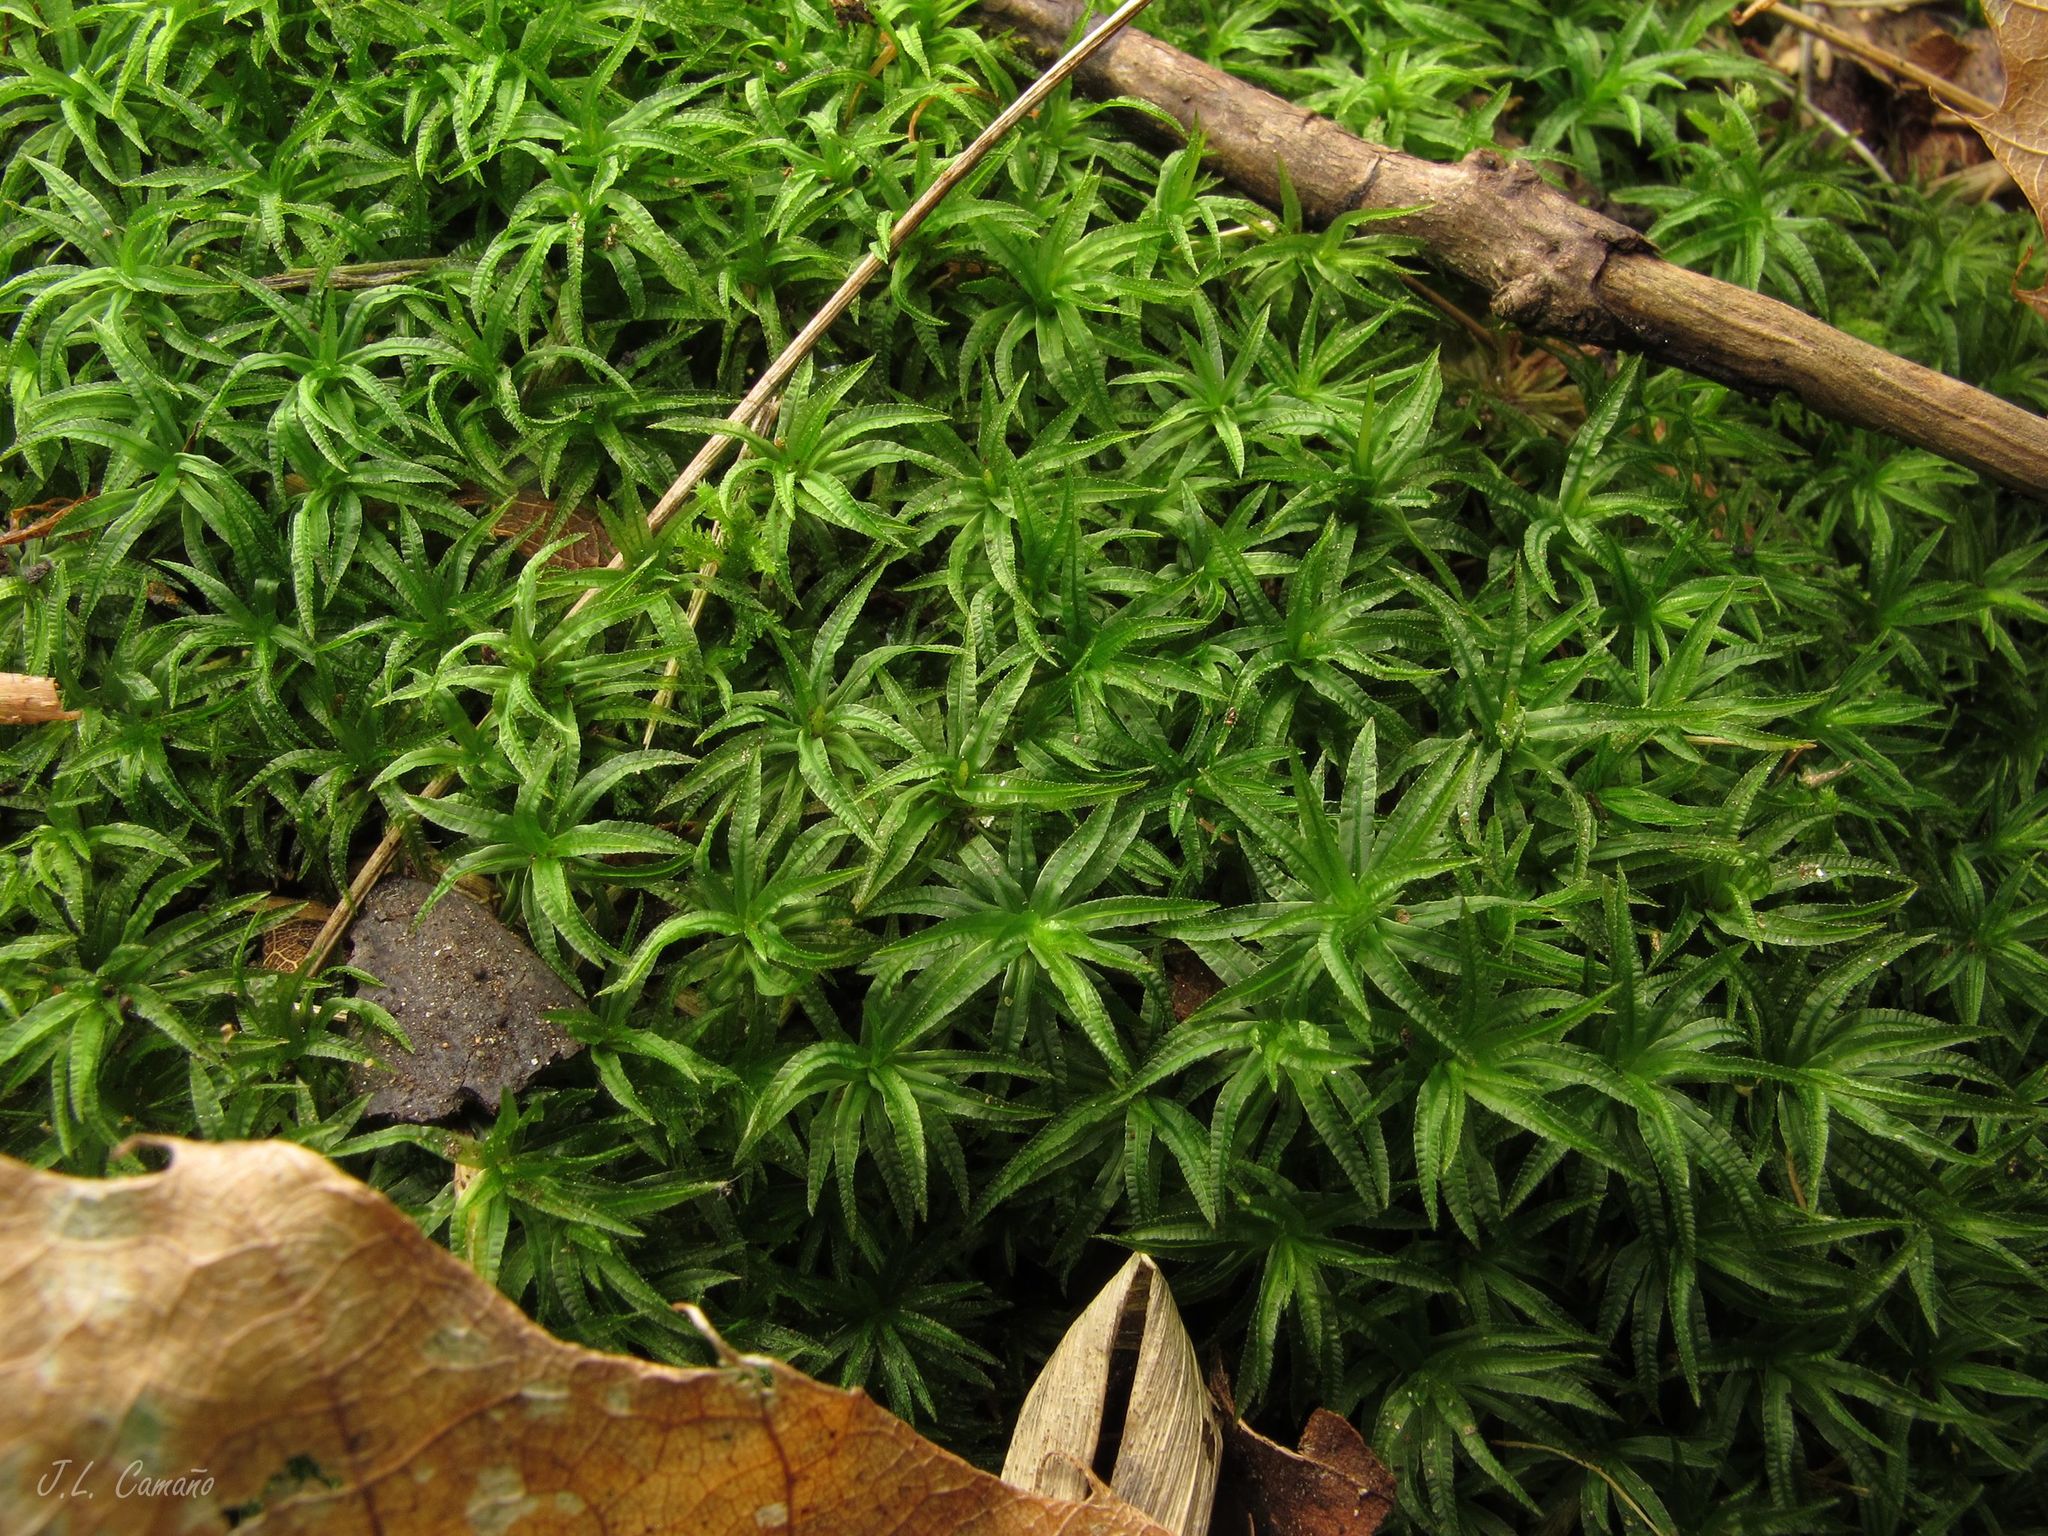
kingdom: Plantae
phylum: Bryophyta
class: Polytrichopsida
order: Polytrichales
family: Polytrichaceae
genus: Atrichum
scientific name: Atrichum undulatum
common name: Common smoothcap
